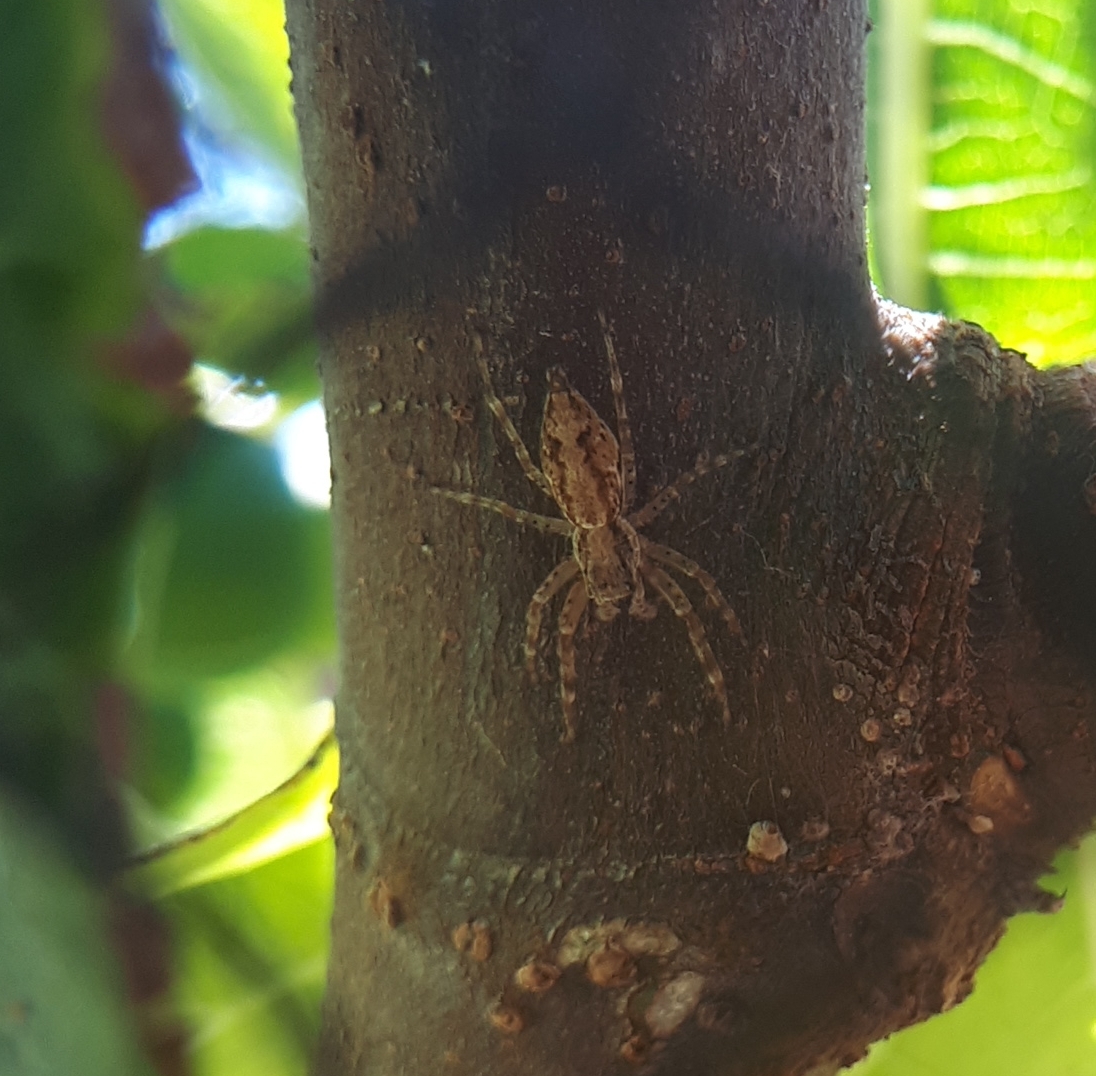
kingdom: Animalia
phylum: Arthropoda
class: Arachnida
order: Araneae
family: Salticidae
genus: Helpis
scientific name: Helpis minitabunda
